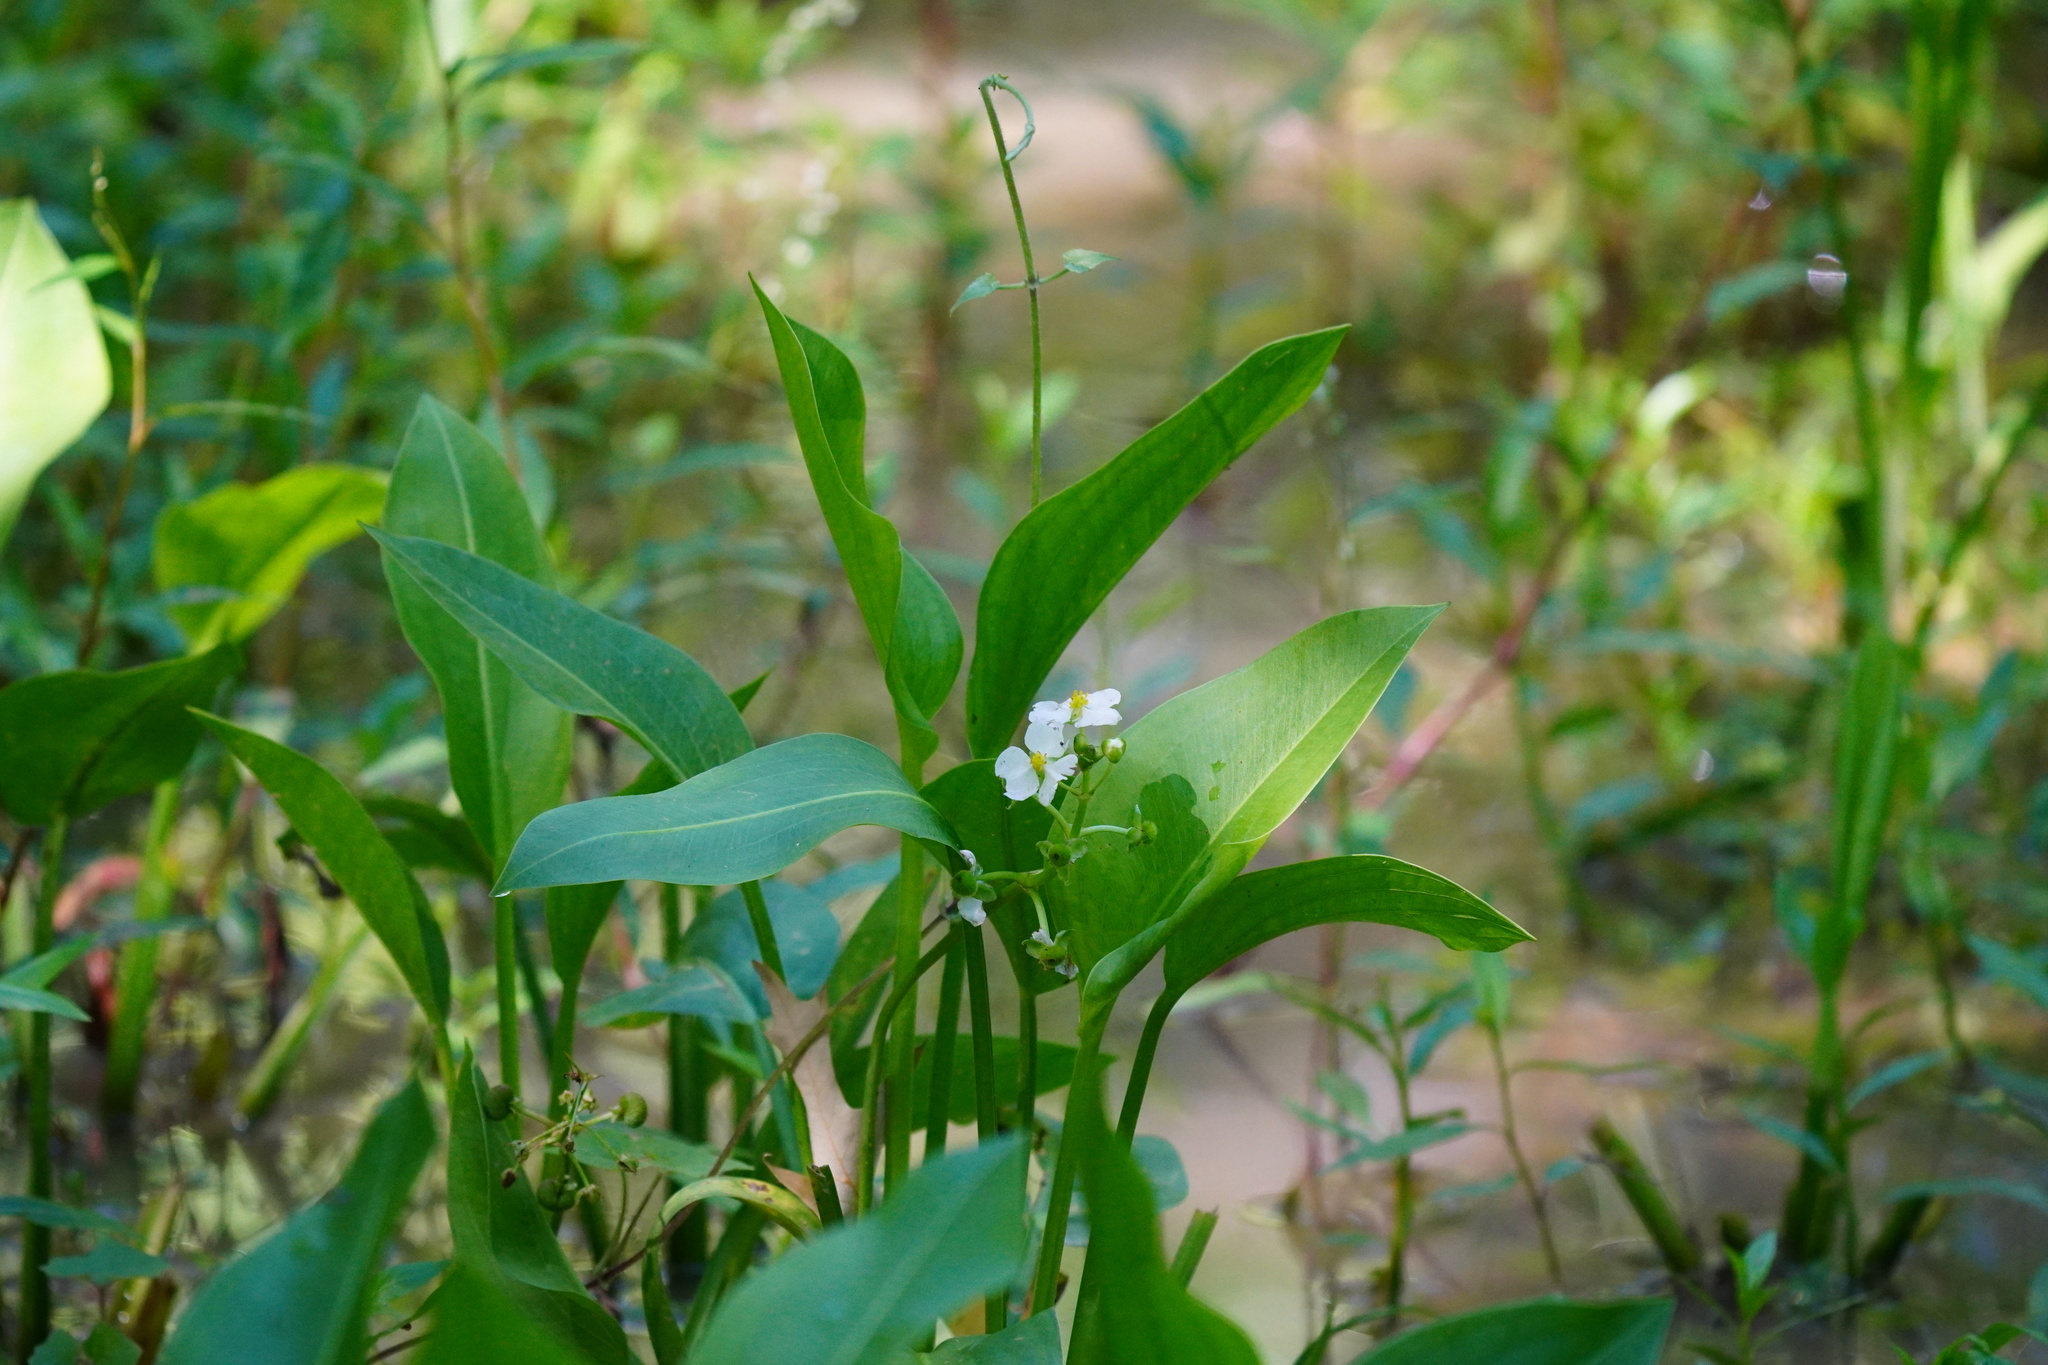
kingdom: Plantae
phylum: Tracheophyta
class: Liliopsida
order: Alismatales
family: Alismataceae
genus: Sagittaria
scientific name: Sagittaria platyphylla
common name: Broad-leaf arrowhead
